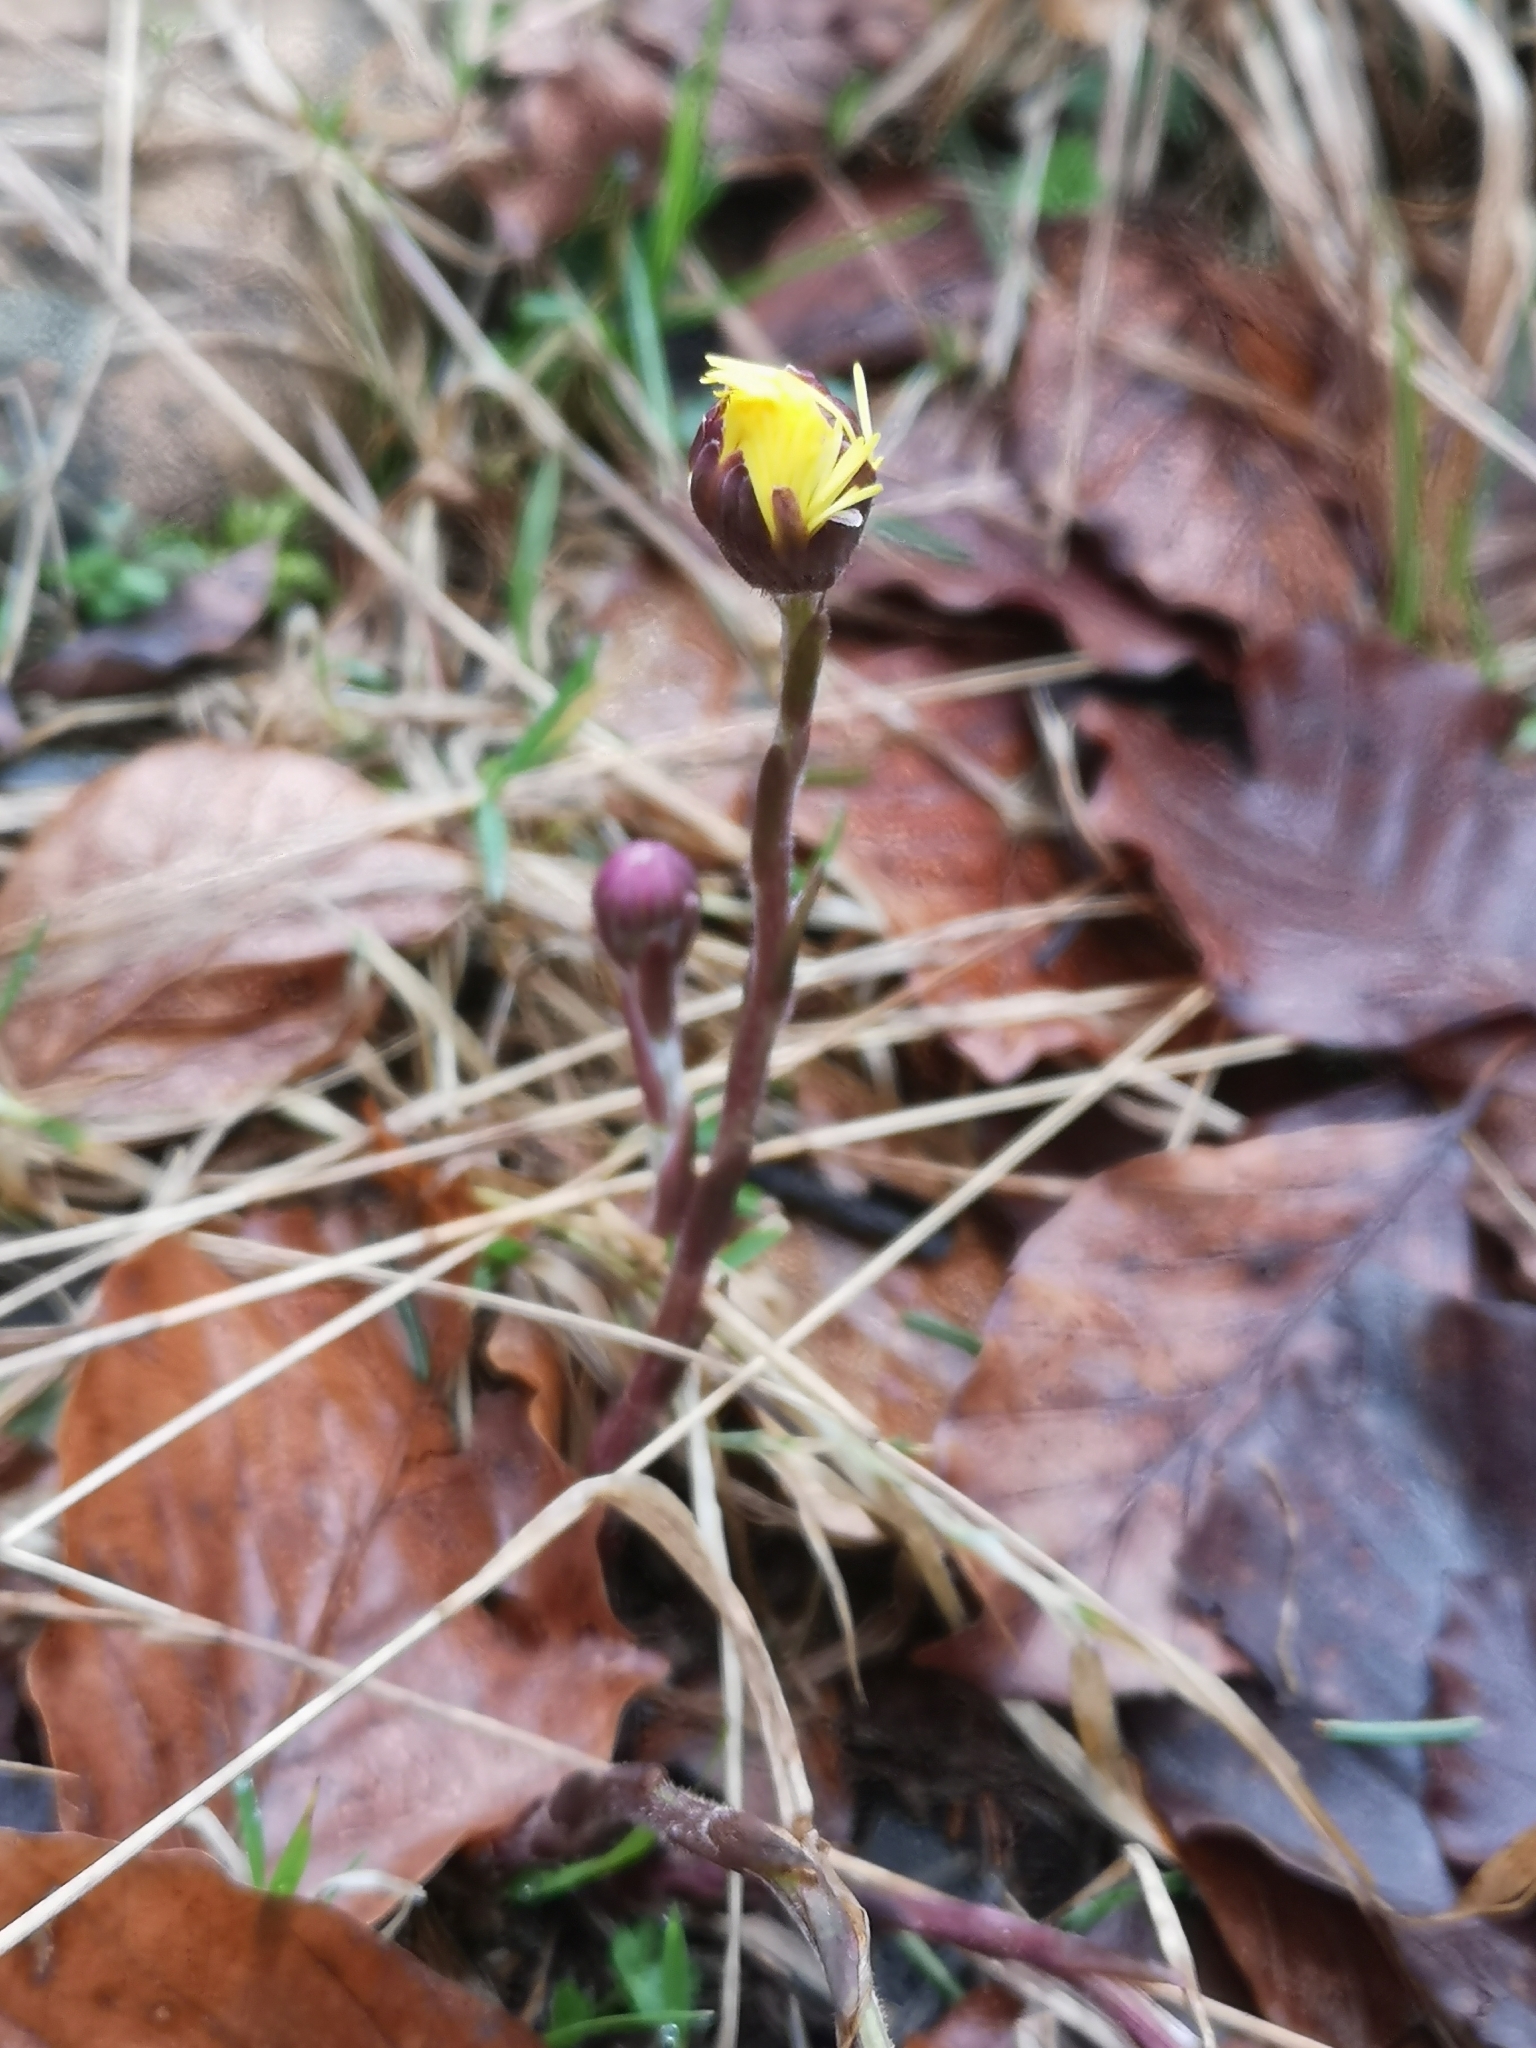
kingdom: Plantae
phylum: Tracheophyta
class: Magnoliopsida
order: Asterales
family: Asteraceae
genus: Tussilago
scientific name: Tussilago farfara
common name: Coltsfoot
